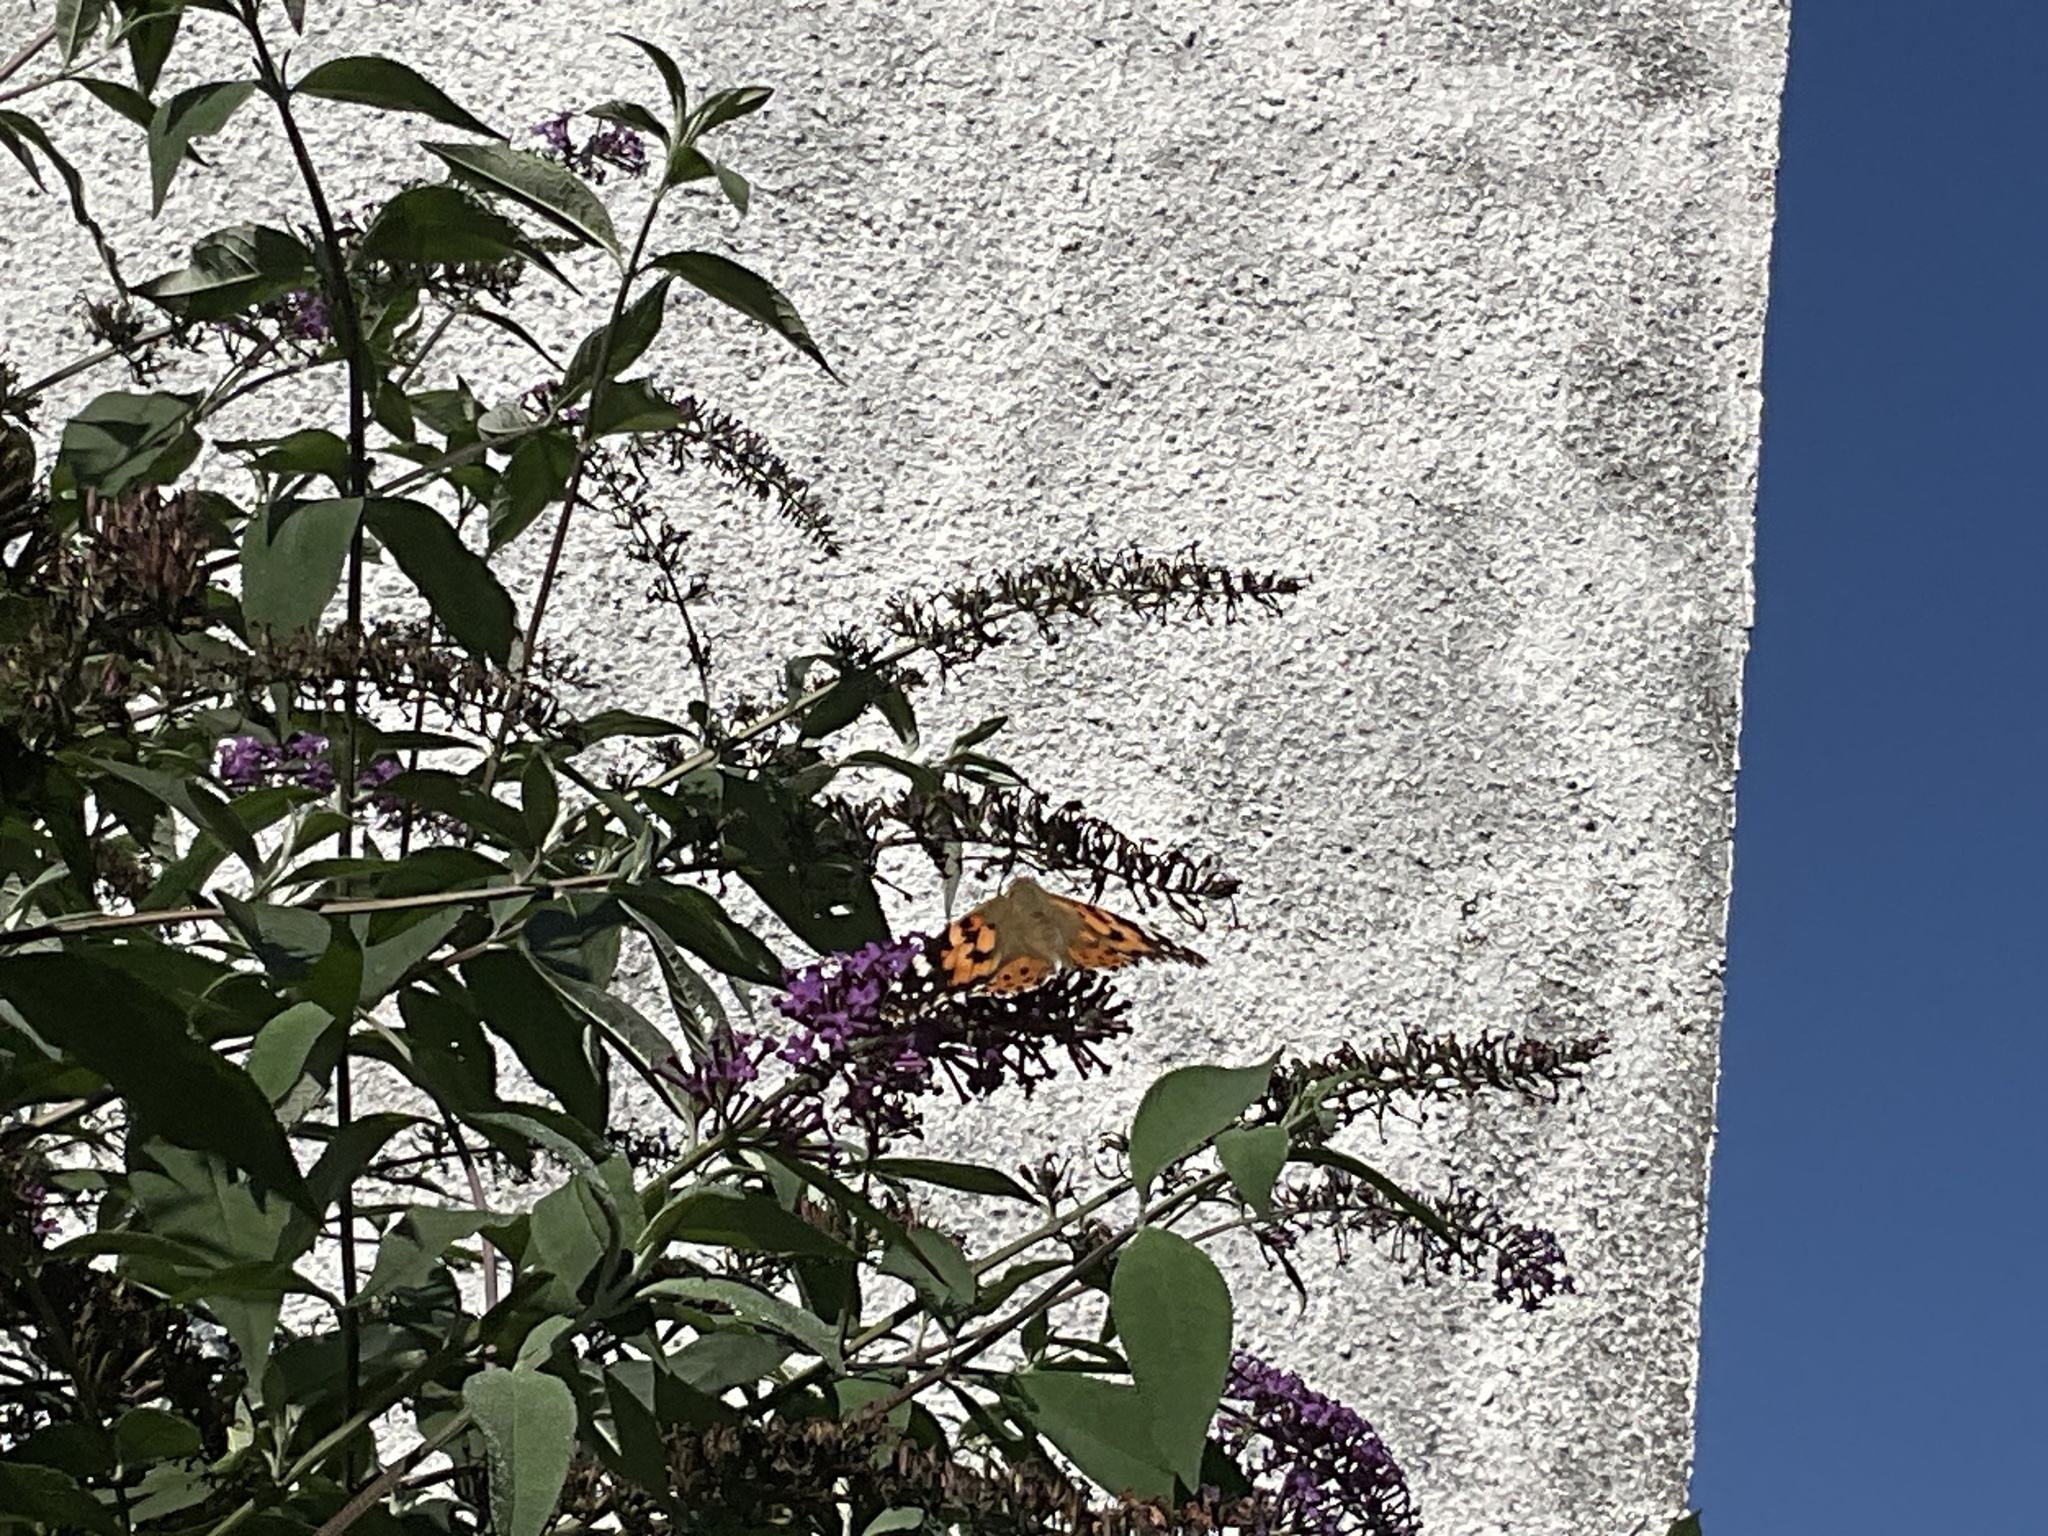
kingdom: Animalia
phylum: Arthropoda
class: Insecta
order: Lepidoptera
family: Nymphalidae
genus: Vanessa
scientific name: Vanessa cardui
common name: Painted lady
